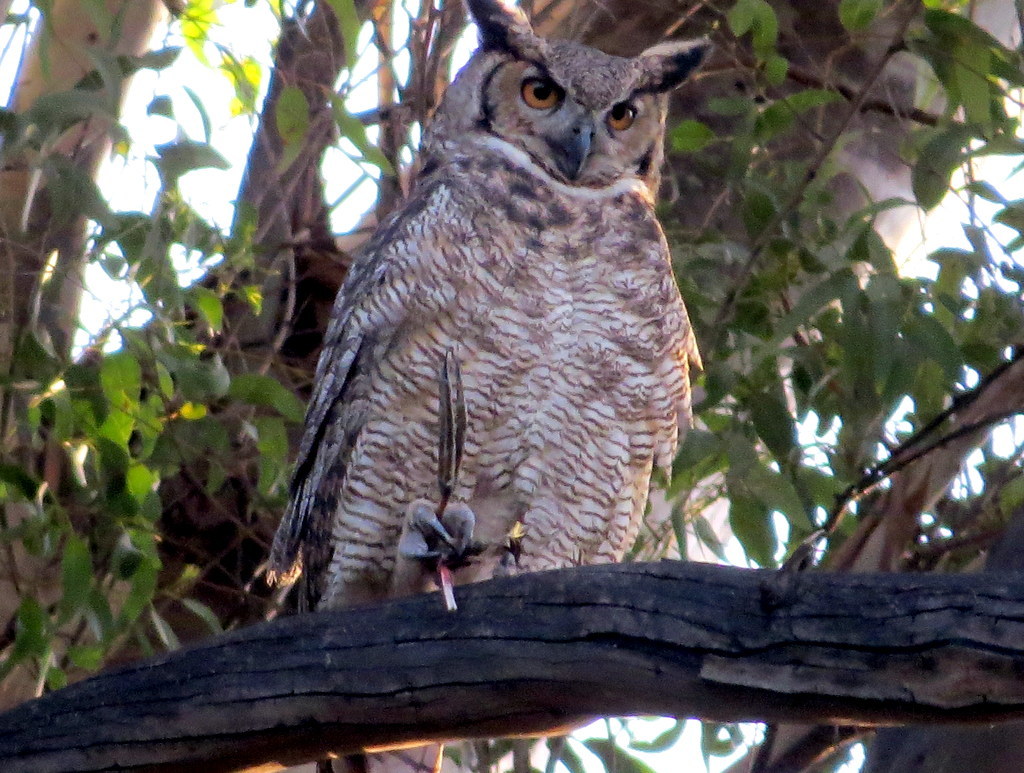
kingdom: Animalia
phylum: Chordata
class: Aves
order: Strigiformes
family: Strigidae
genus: Bubo
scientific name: Bubo virginianus
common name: Great horned owl
